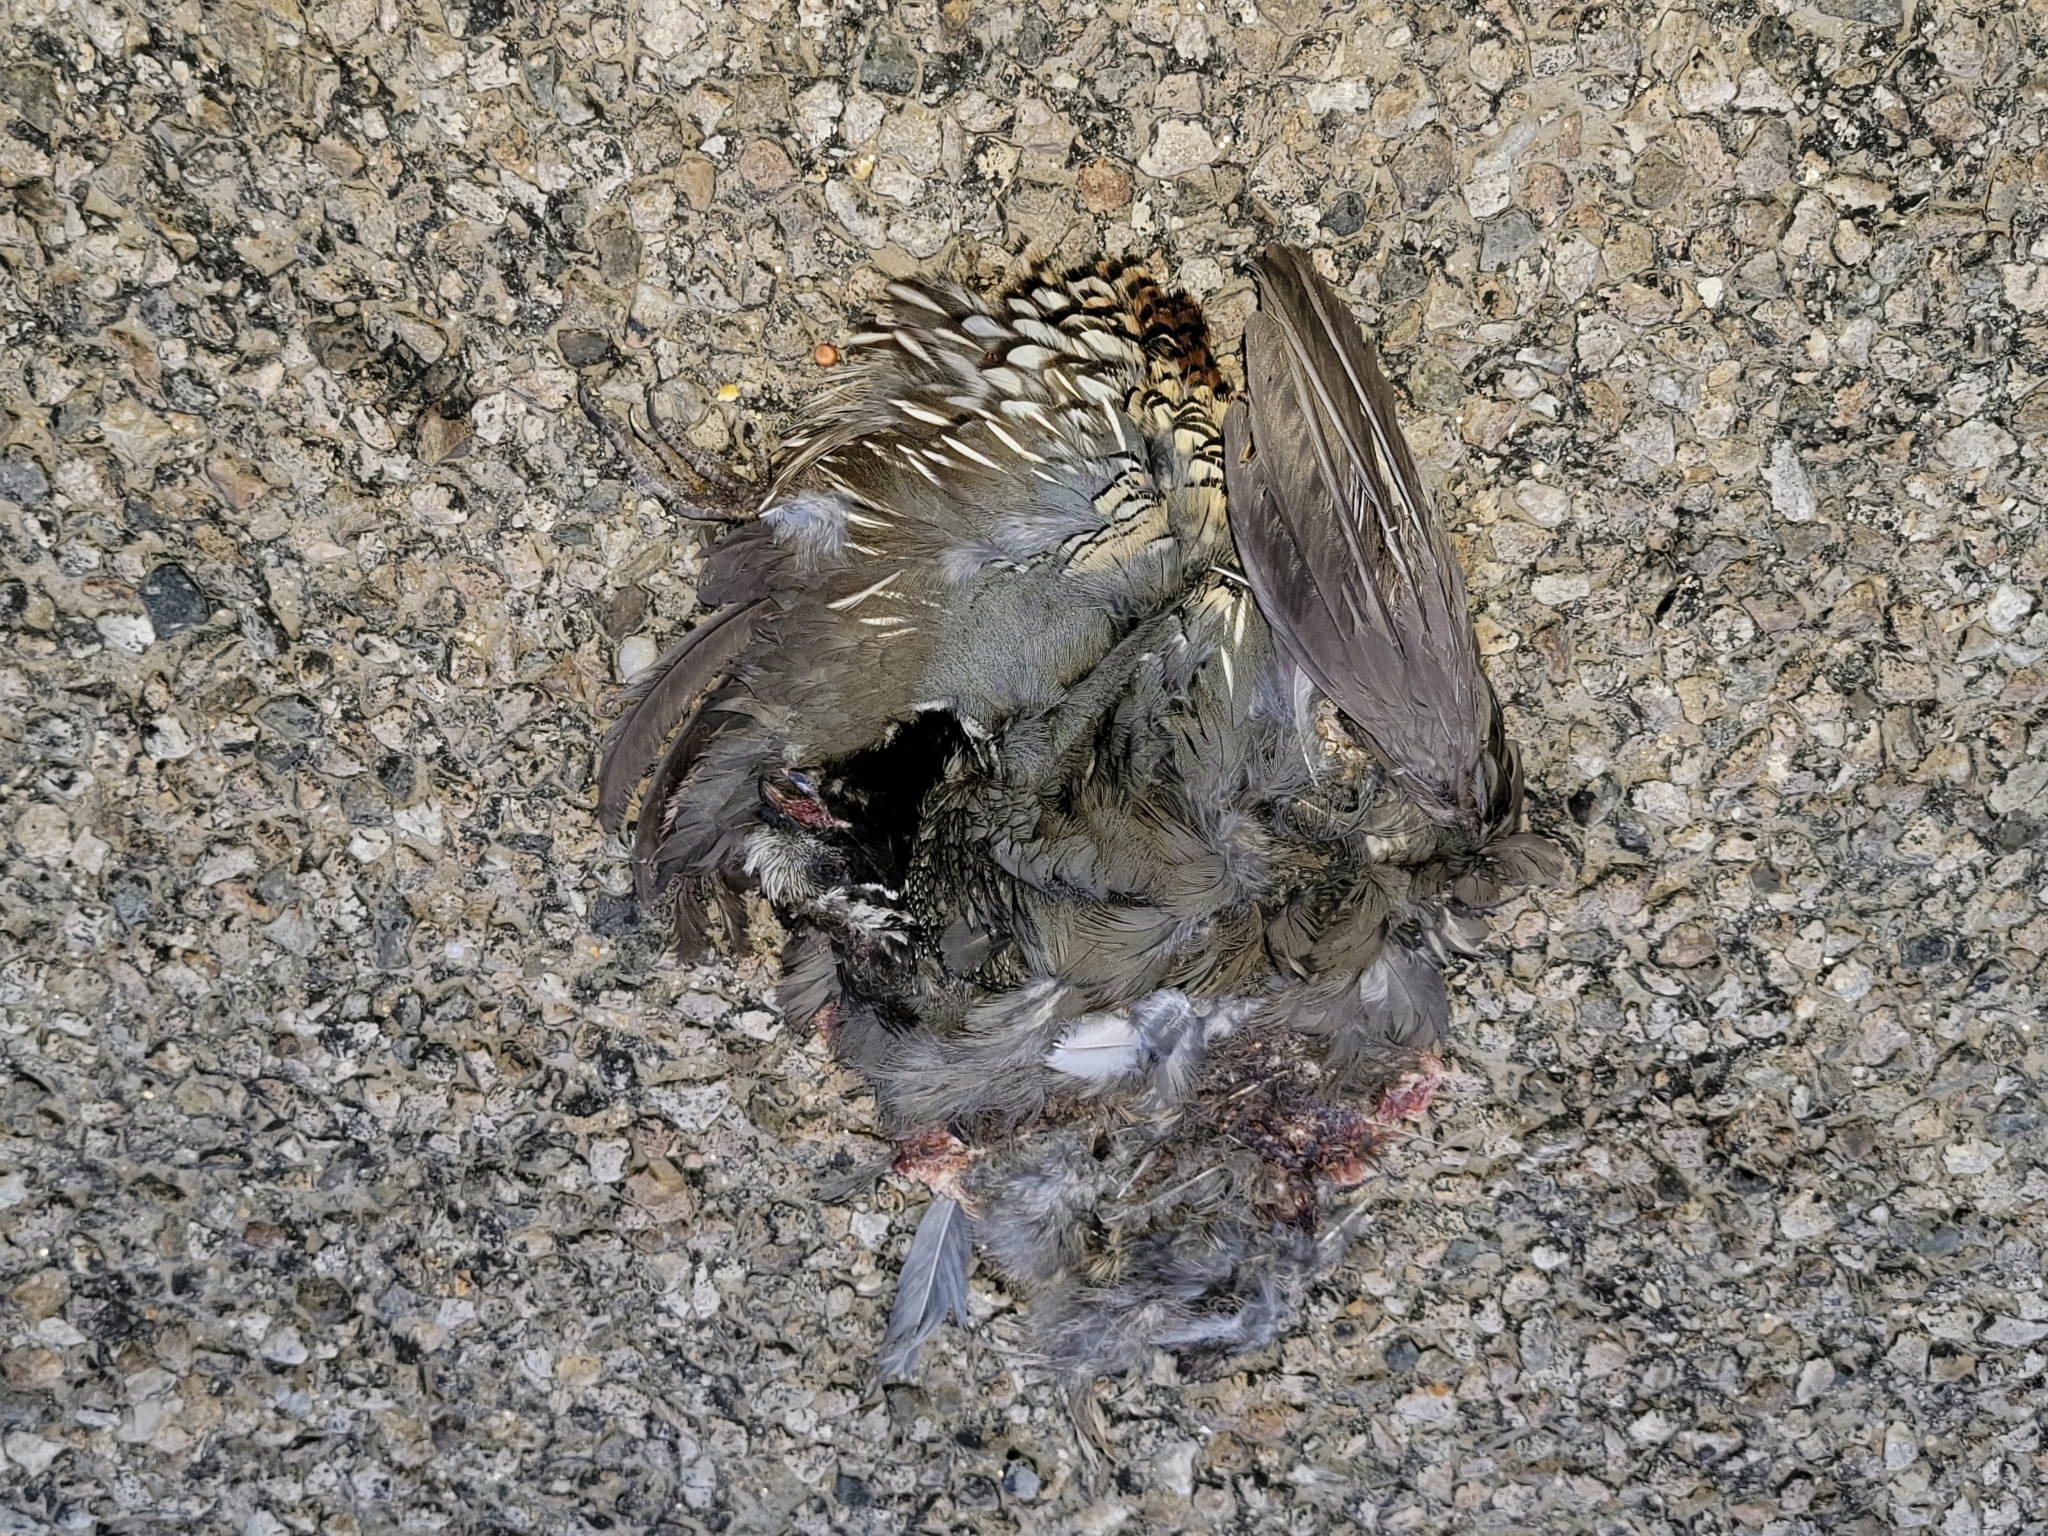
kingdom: Animalia
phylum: Chordata
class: Aves
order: Galliformes
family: Odontophoridae
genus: Callipepla
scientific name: Callipepla californica
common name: California quail
